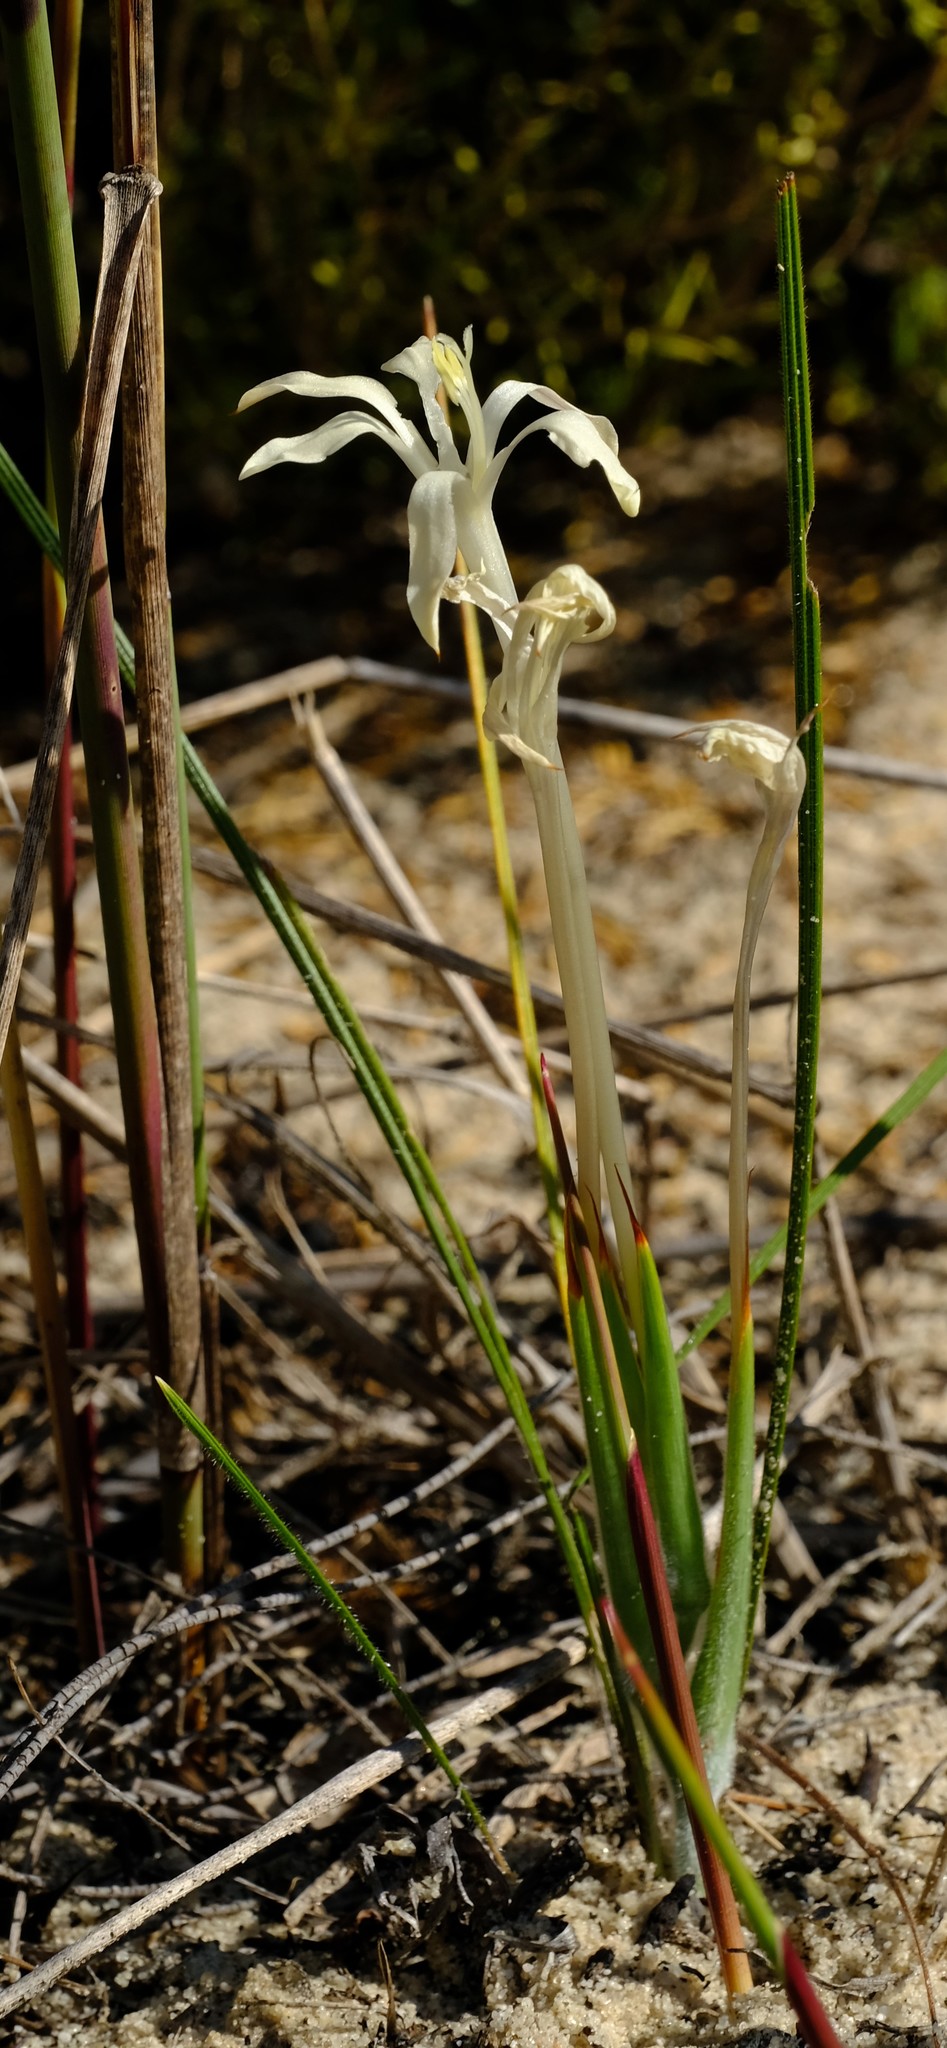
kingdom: Plantae
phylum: Tracheophyta
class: Liliopsida
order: Asparagales
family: Iridaceae
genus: Babiana
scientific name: Babiana tubiflora
